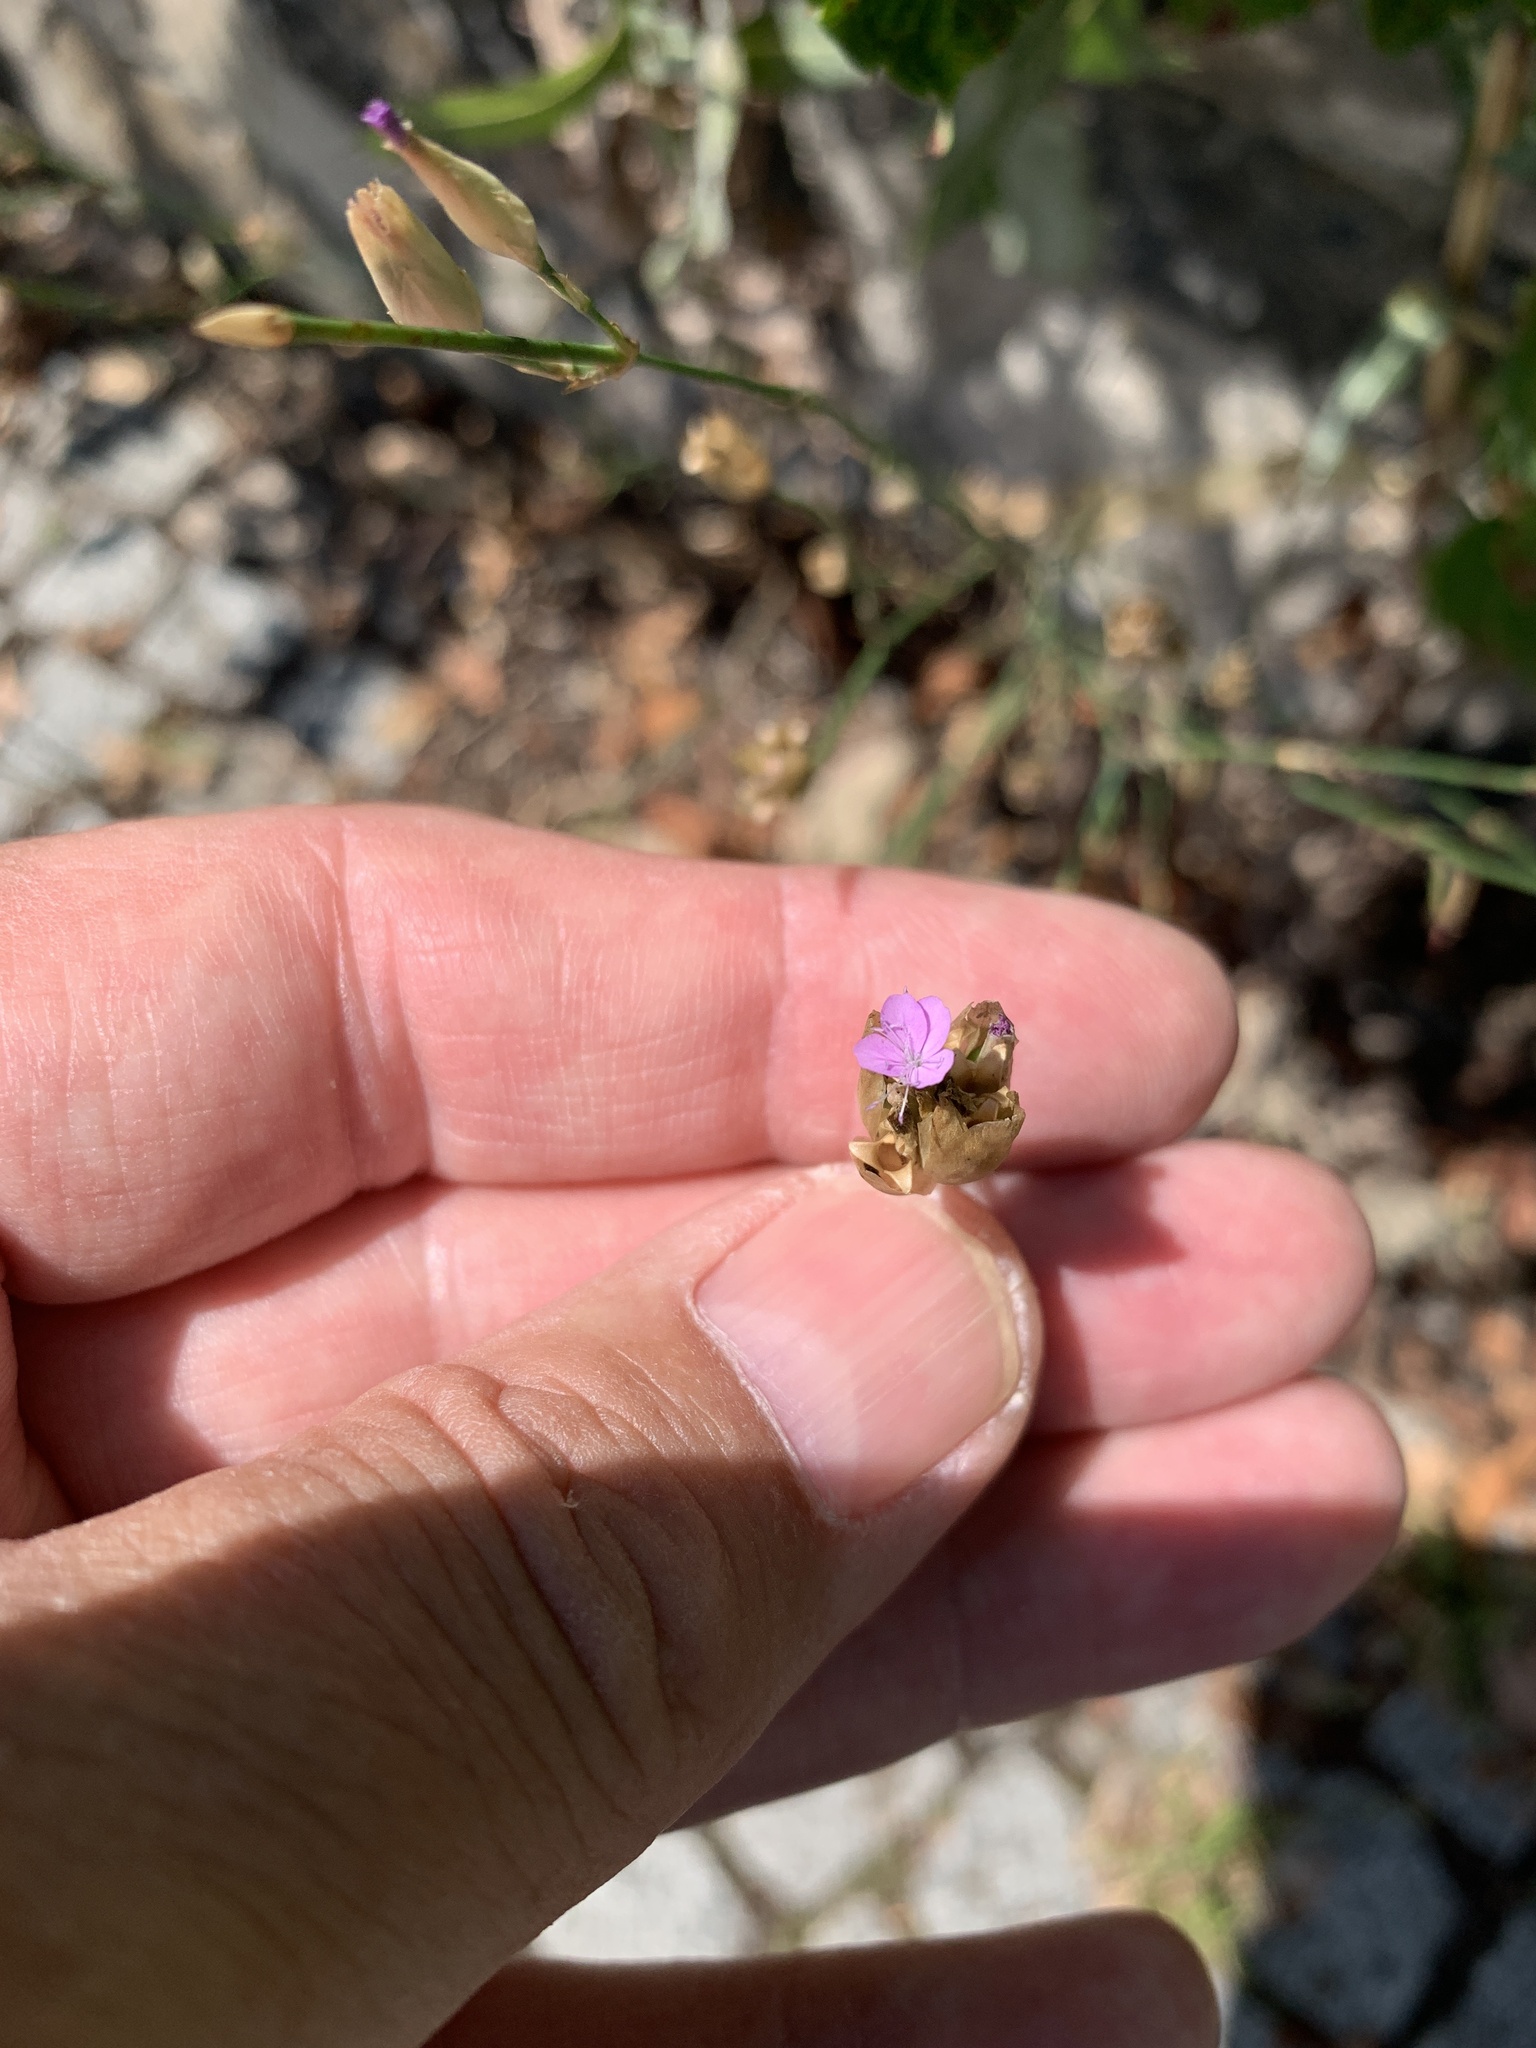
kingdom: Plantae
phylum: Tracheophyta
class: Magnoliopsida
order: Caryophyllales
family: Caryophyllaceae
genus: Petrorhagia
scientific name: Petrorhagia prolifera
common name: Proliferous pink
